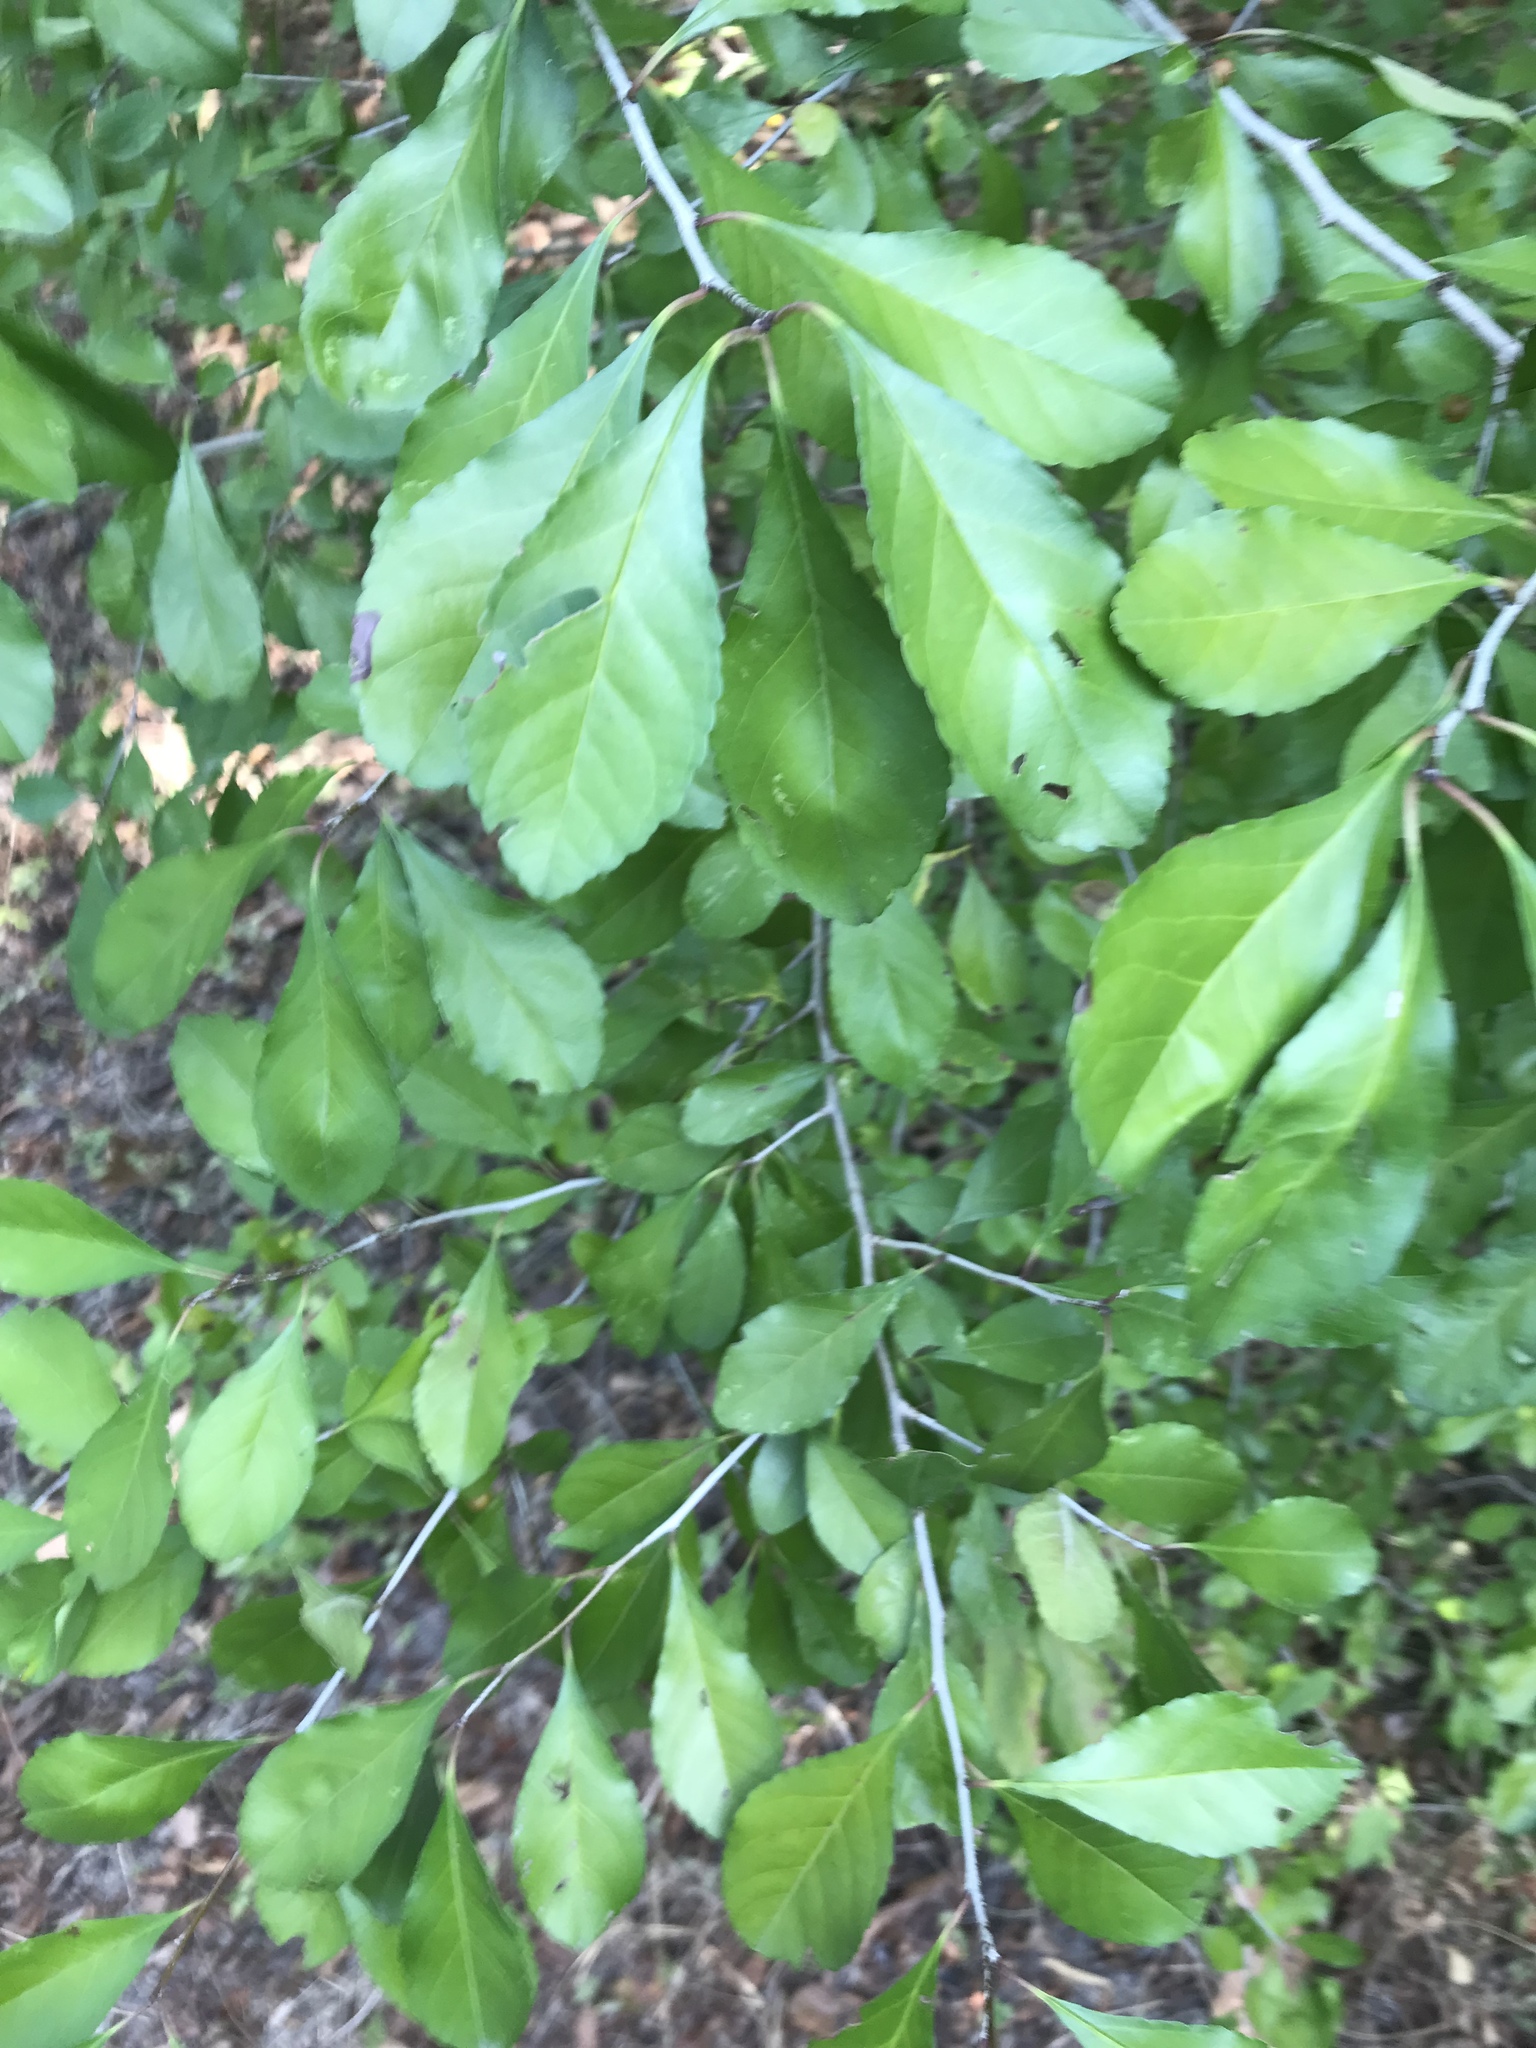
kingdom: Plantae
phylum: Tracheophyta
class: Magnoliopsida
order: Aquifoliales
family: Aquifoliaceae
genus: Ilex
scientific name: Ilex decidua
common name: Possum-haw
